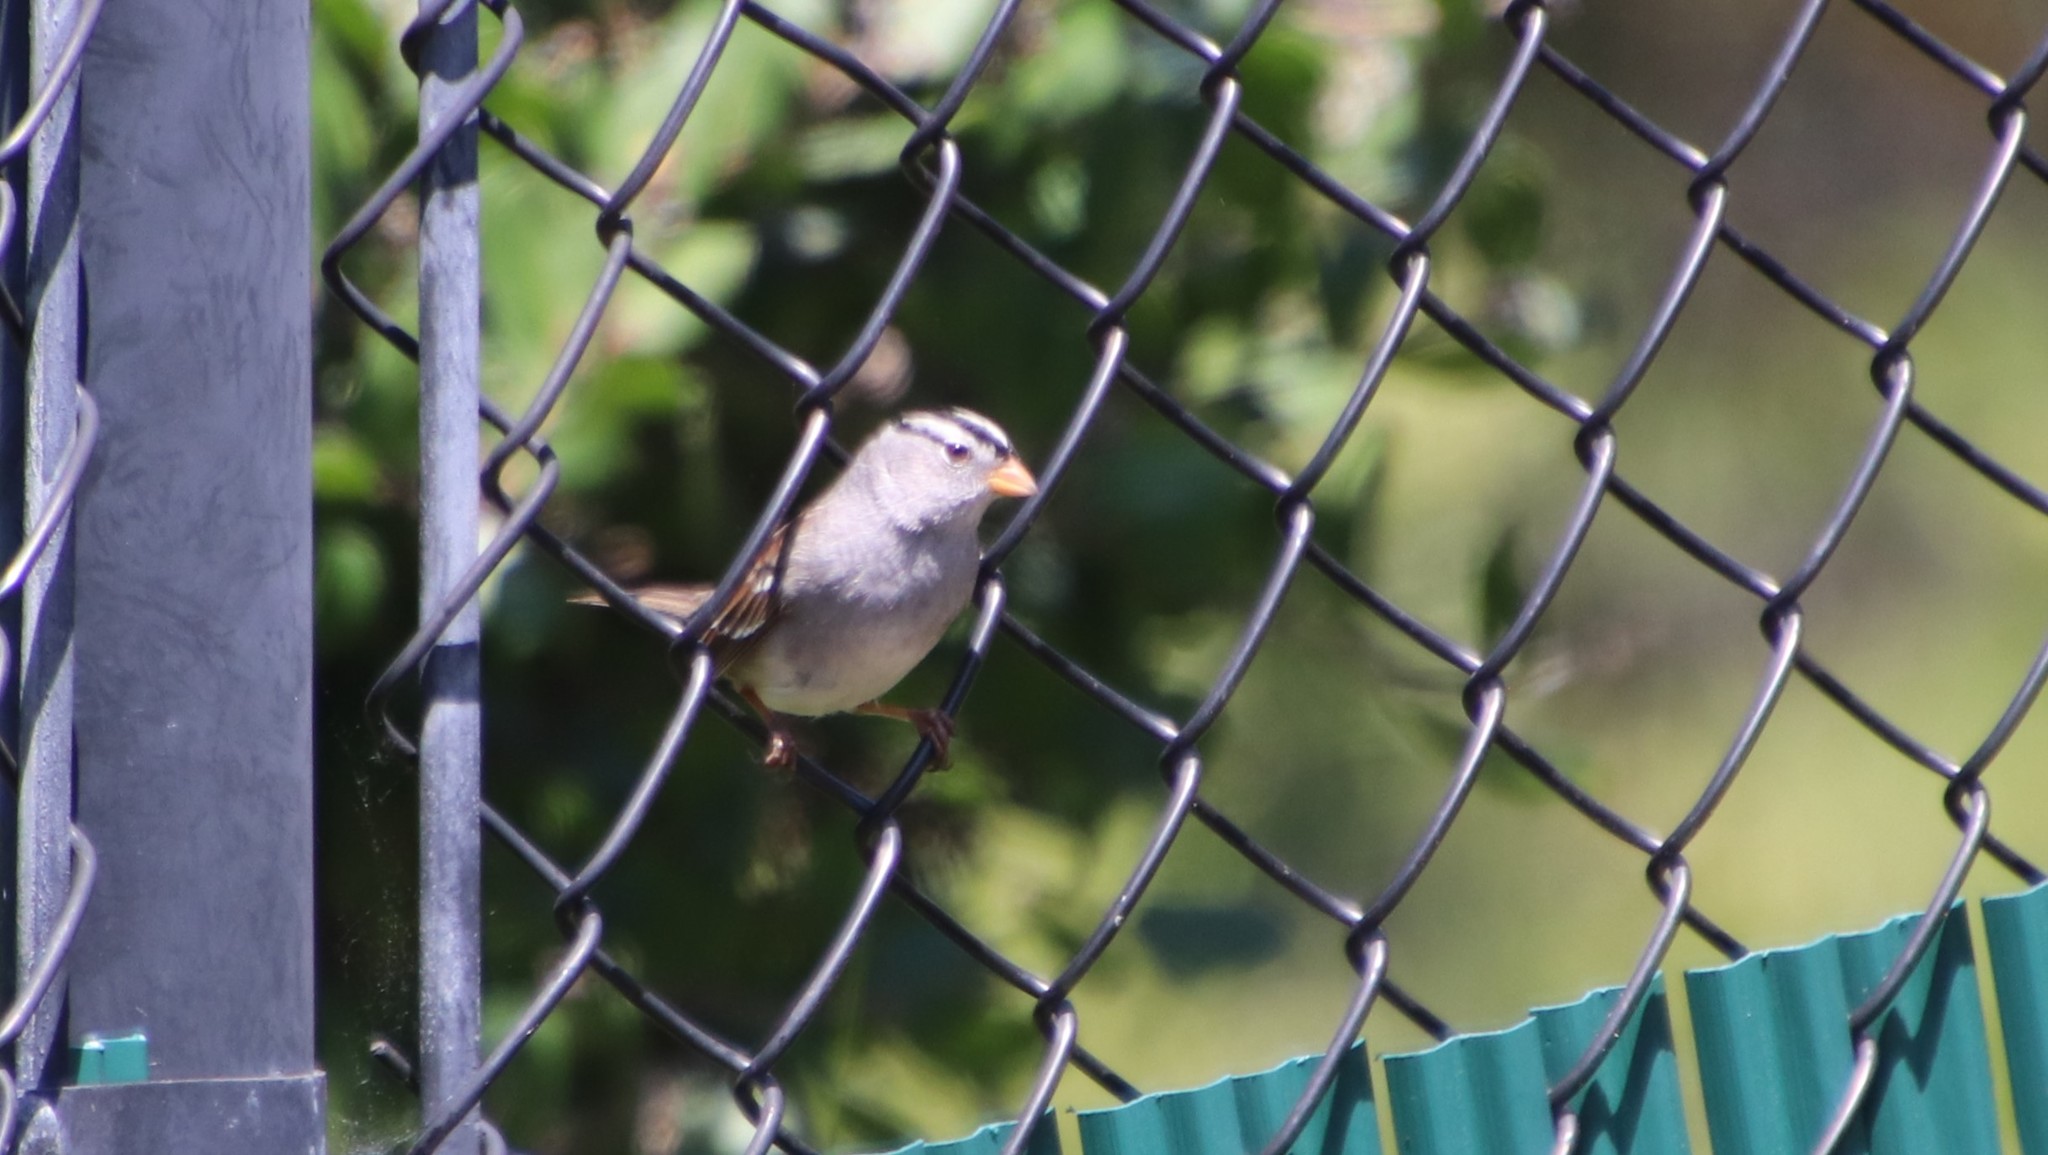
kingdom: Animalia
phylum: Chordata
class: Aves
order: Passeriformes
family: Passerellidae
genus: Zonotrichia
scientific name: Zonotrichia leucophrys
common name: White-crowned sparrow
